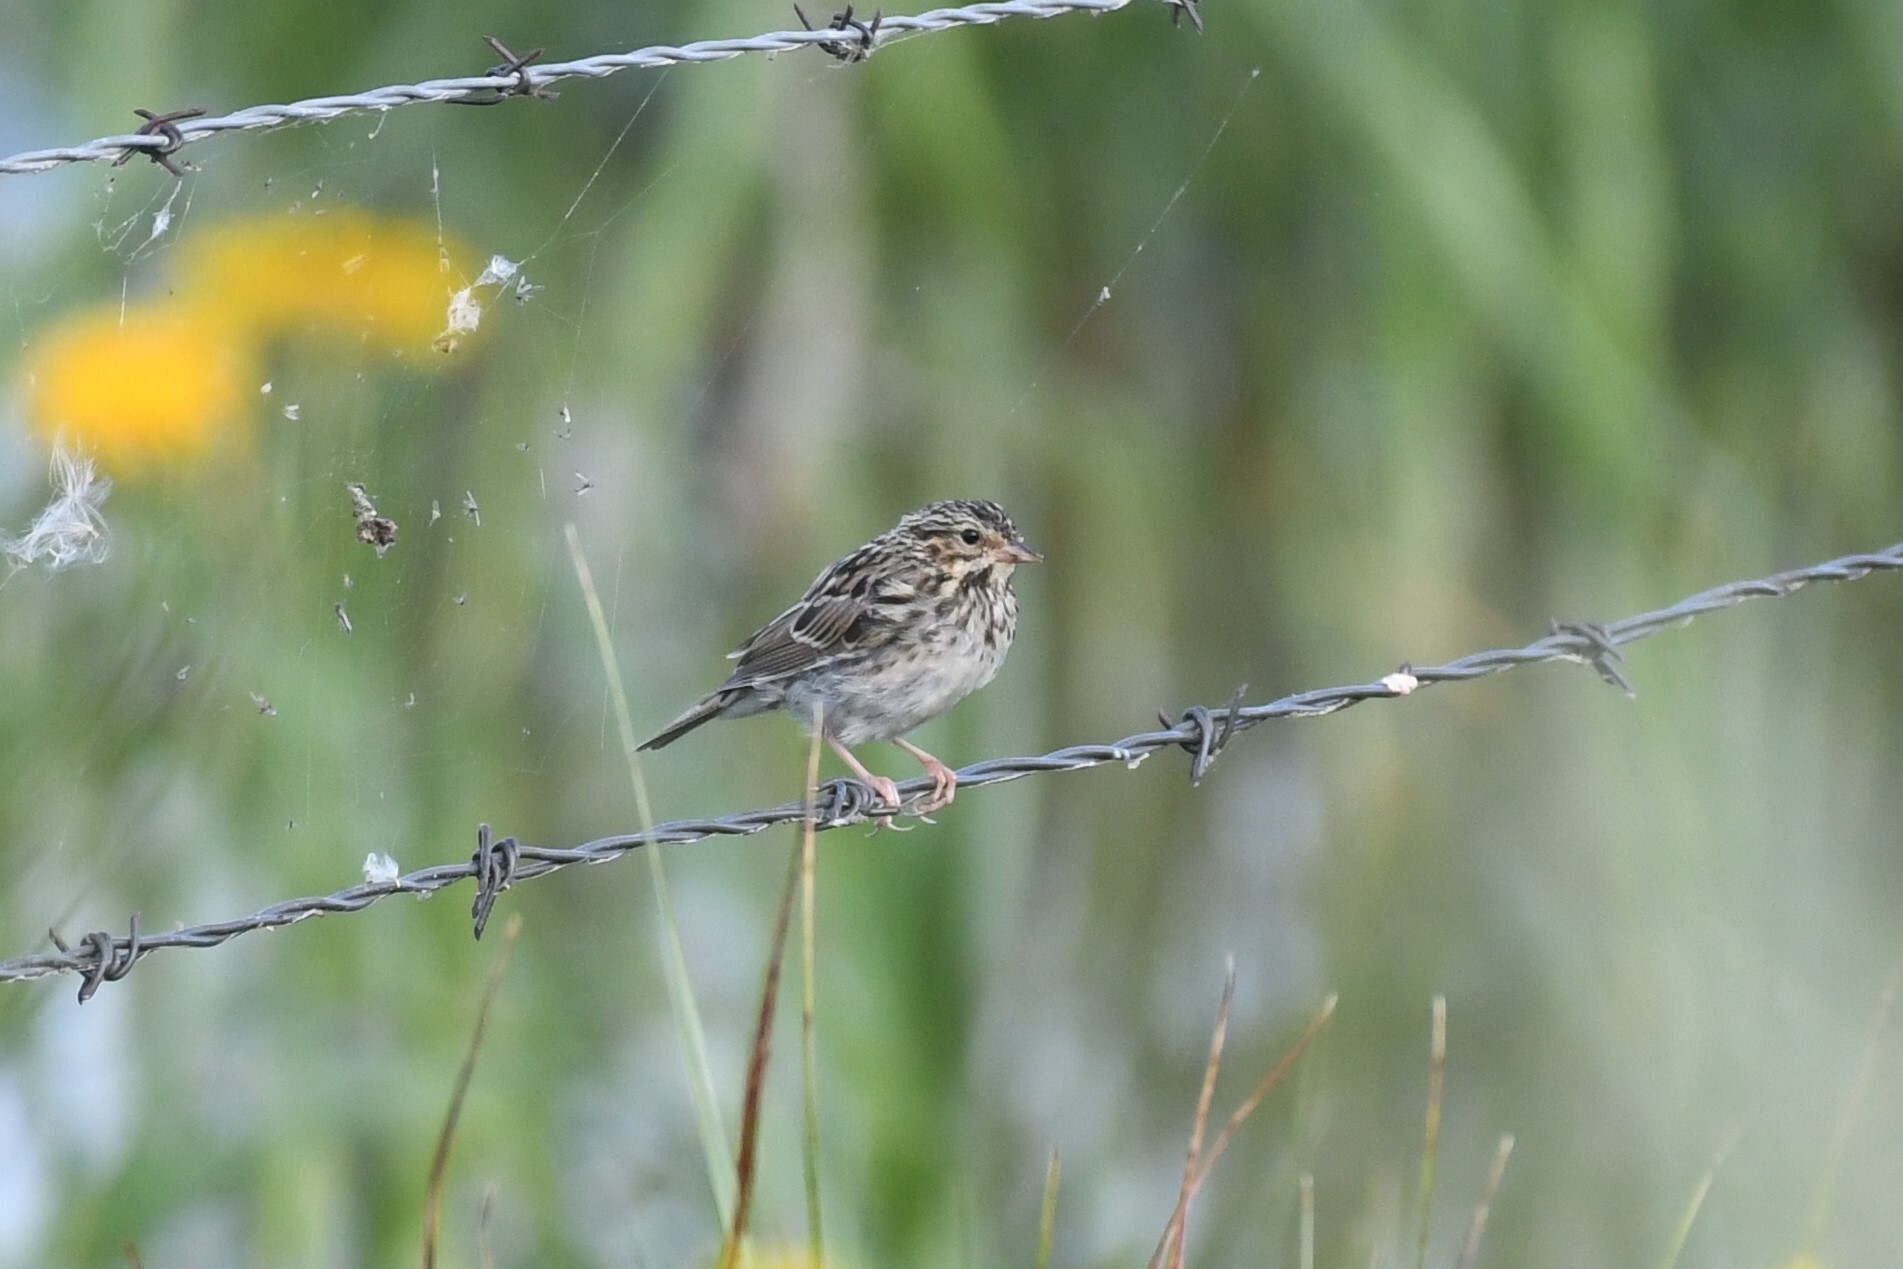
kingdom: Animalia
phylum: Chordata
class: Aves
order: Passeriformes
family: Passerellidae
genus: Passerculus
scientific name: Passerculus sandwichensis
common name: Savannah sparrow
